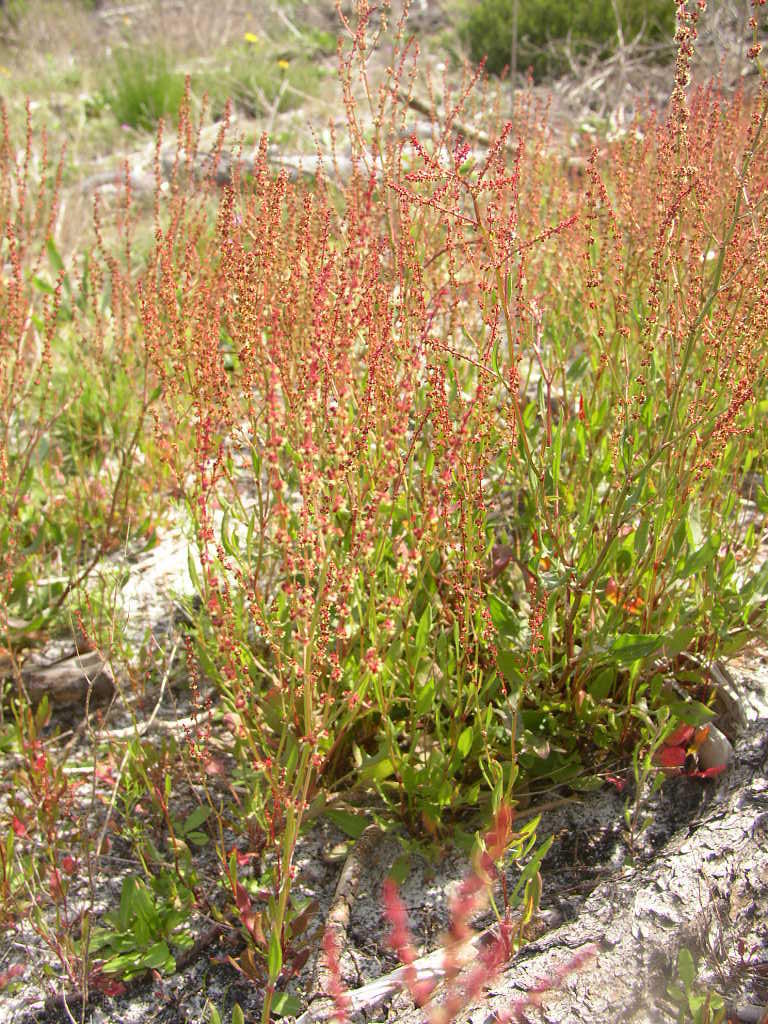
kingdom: Plantae
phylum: Tracheophyta
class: Magnoliopsida
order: Caryophyllales
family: Polygonaceae
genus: Rumex
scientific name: Rumex acetosella
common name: Common sheep sorrel
